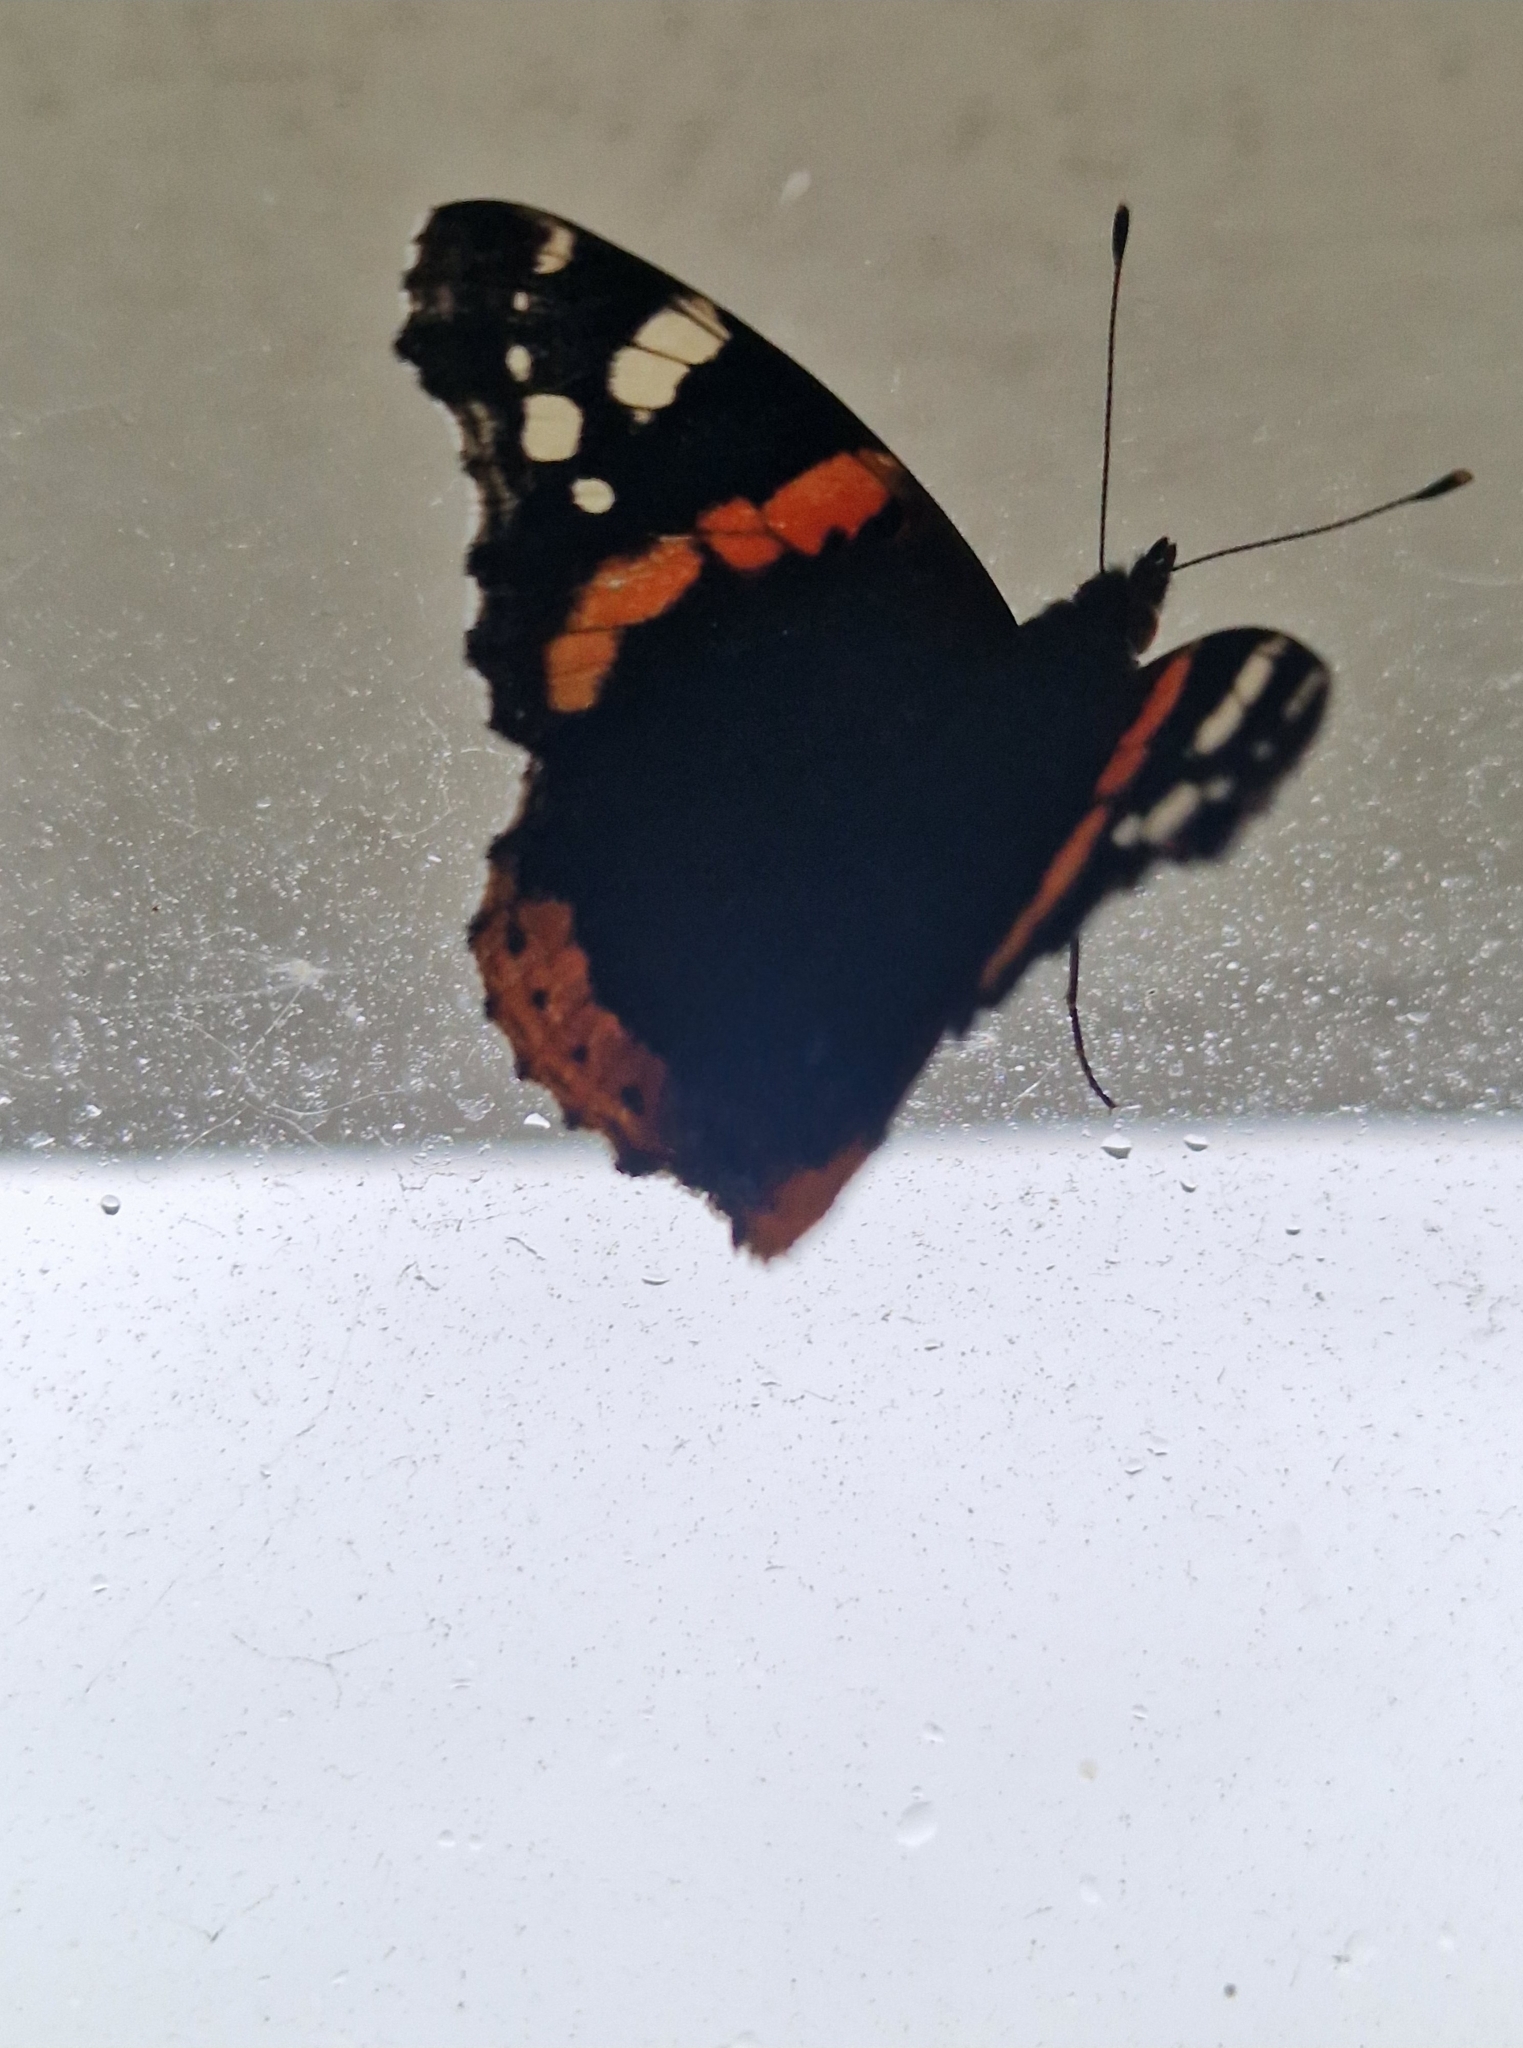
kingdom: Animalia
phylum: Arthropoda
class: Insecta
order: Lepidoptera
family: Nymphalidae
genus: Vanessa
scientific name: Vanessa atalanta
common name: Red admiral
